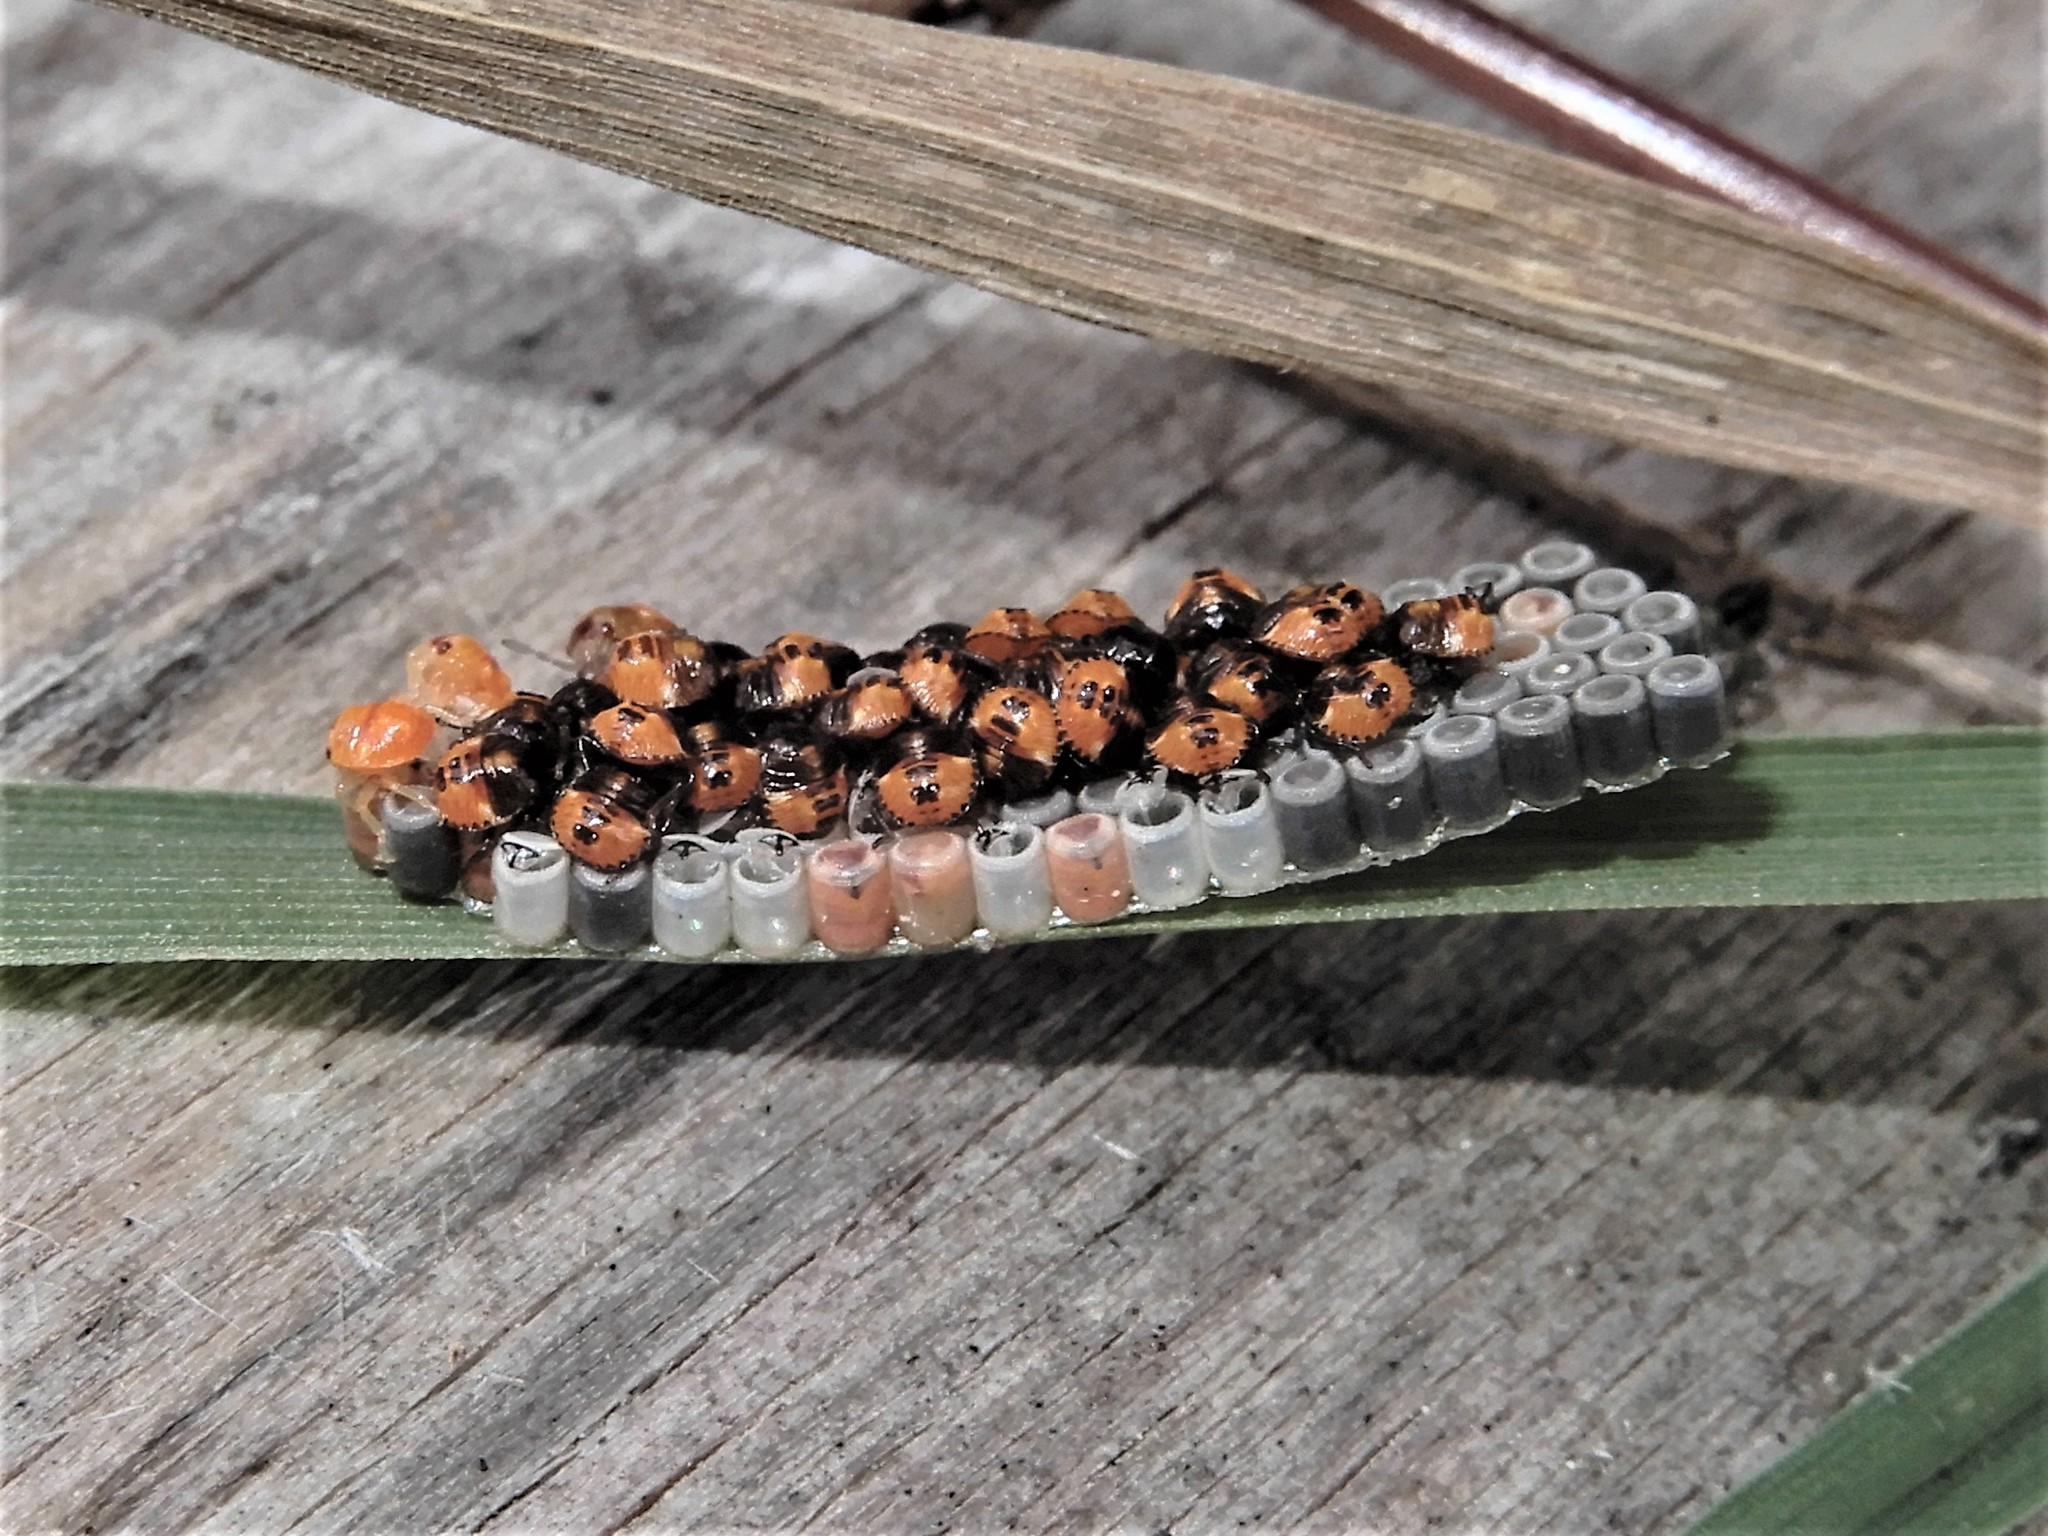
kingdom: Animalia
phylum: Arthropoda
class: Insecta
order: Hemiptera
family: Pentatomidae
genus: Nezara
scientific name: Nezara viridula
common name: Southern green stink bug
